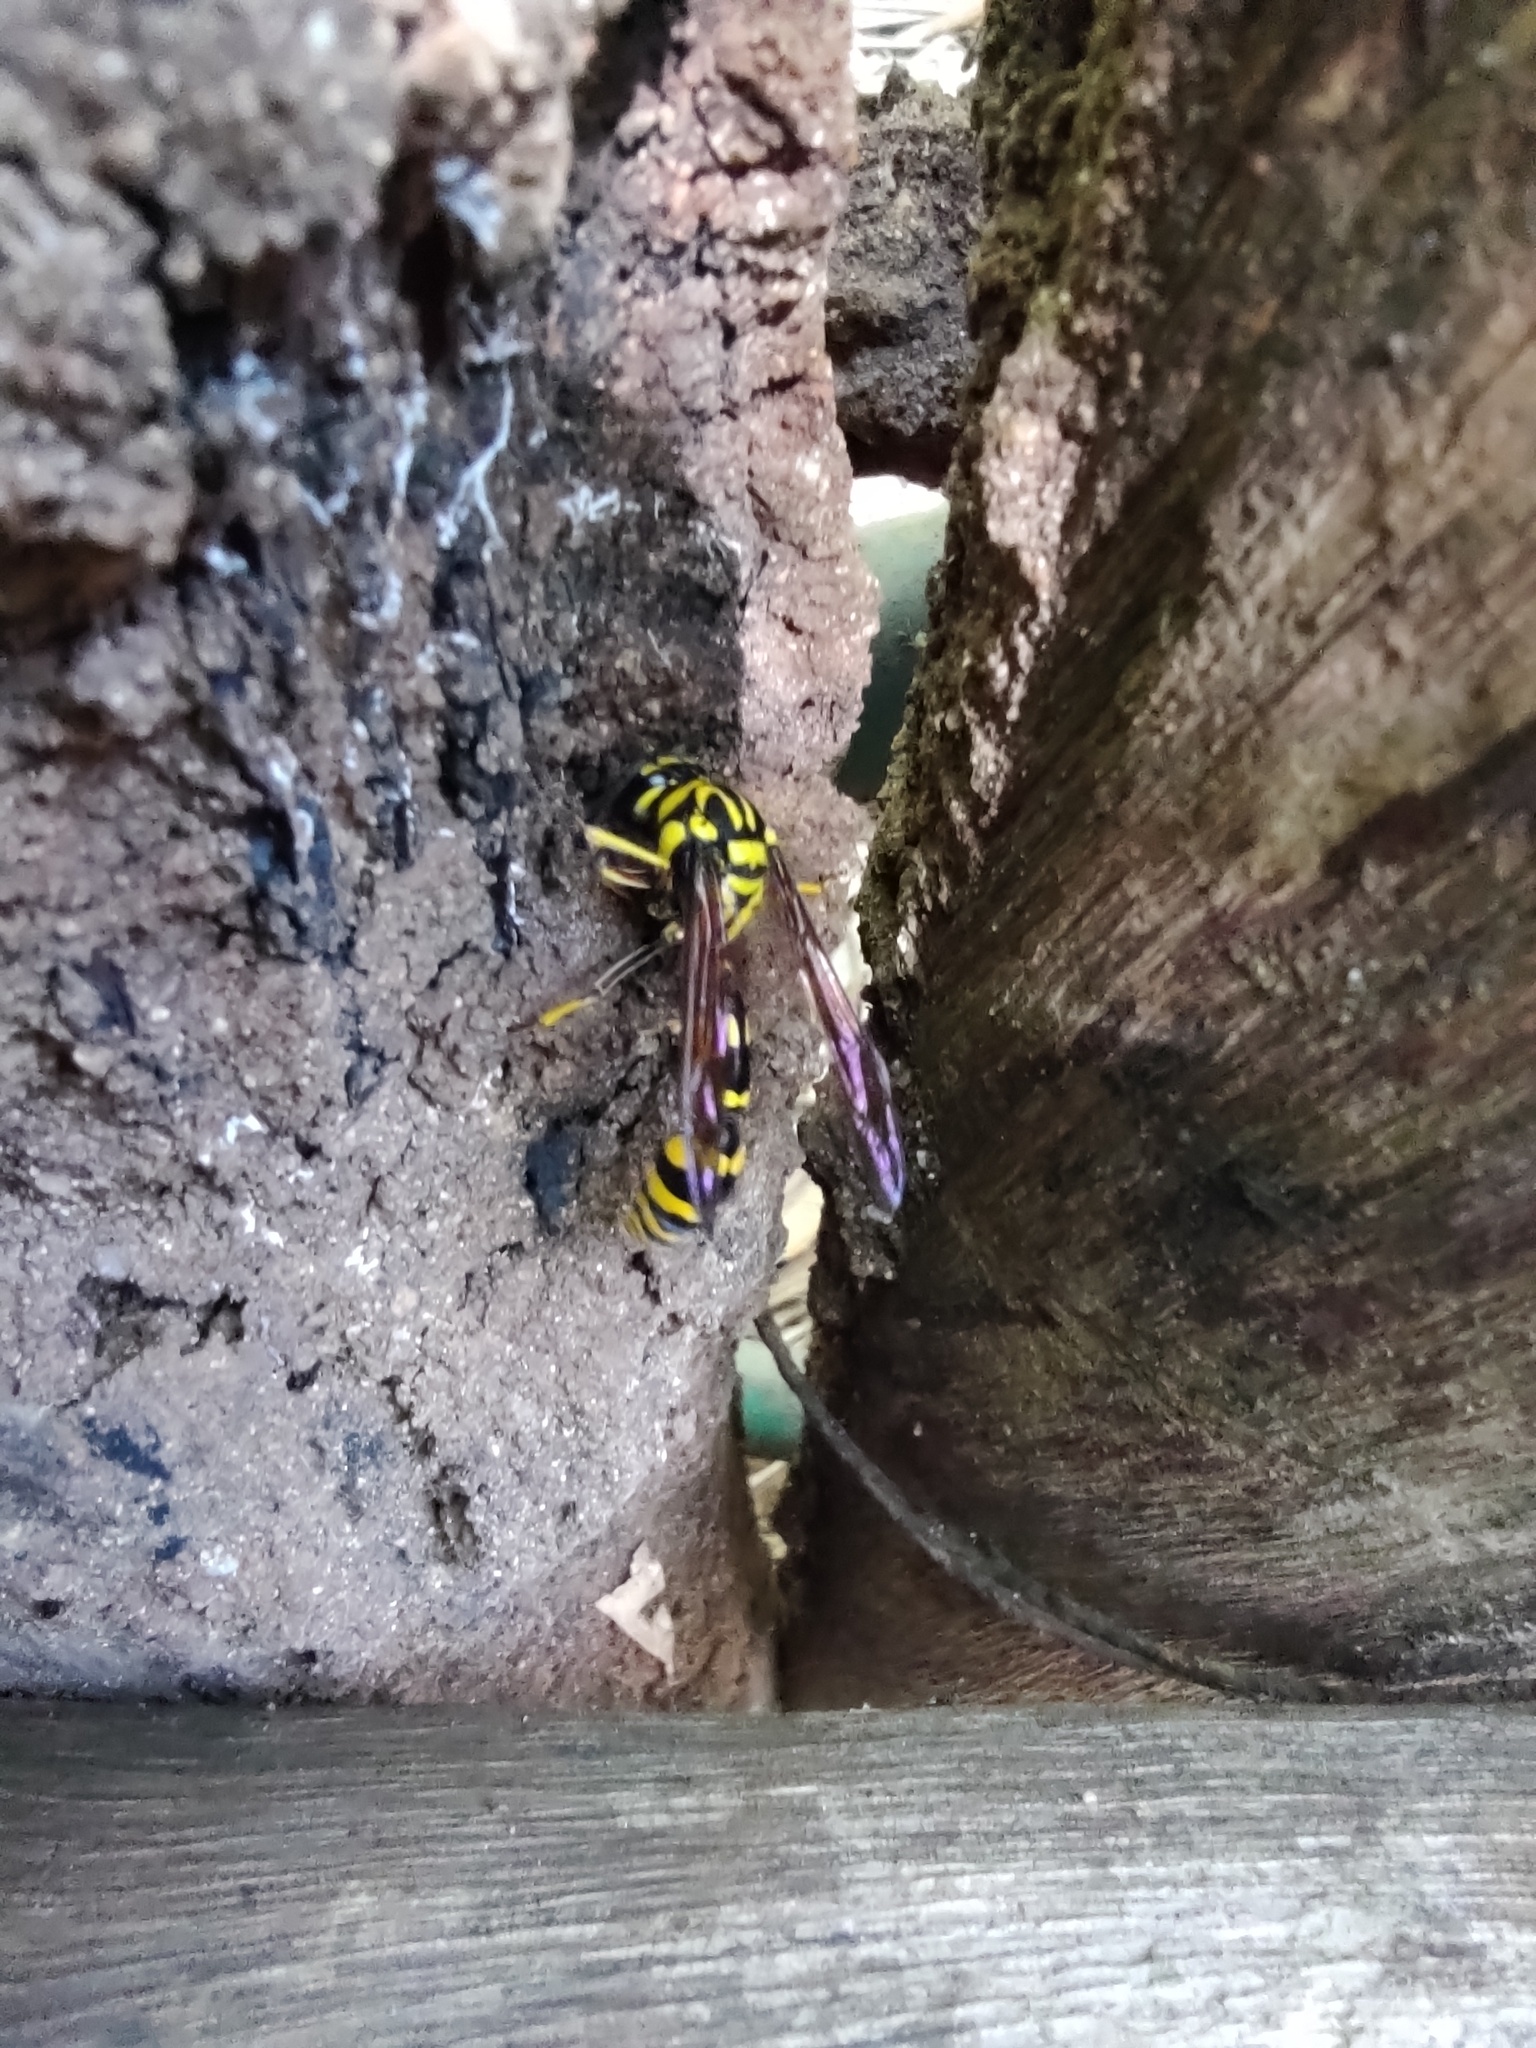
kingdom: Animalia
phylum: Arthropoda
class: Insecta
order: Hymenoptera
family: Eumenidae
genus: Phimenes
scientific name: Phimenes flavopictus
